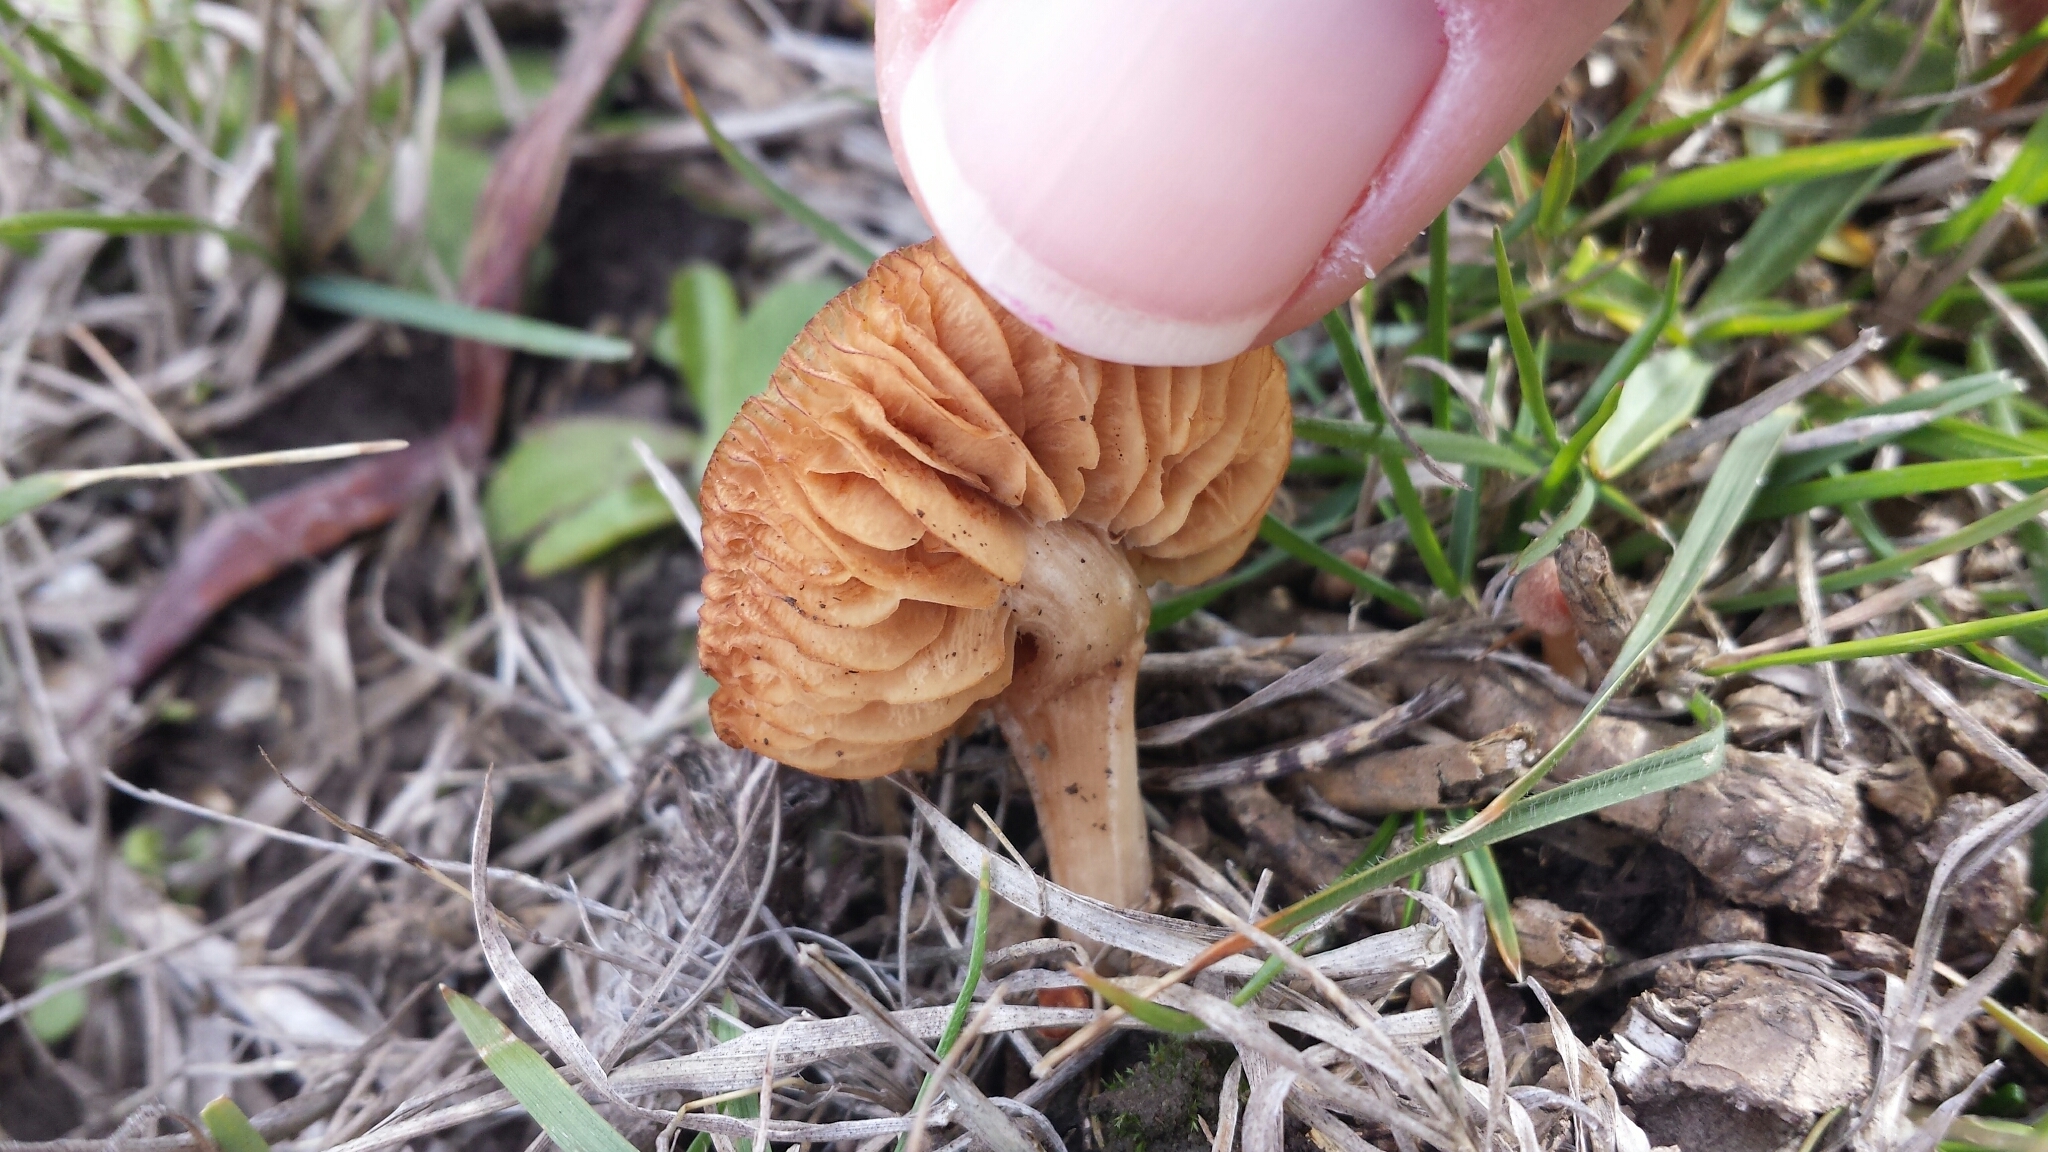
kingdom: Fungi
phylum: Basidiomycota
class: Agaricomycetes
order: Agaricales
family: Tubariaceae
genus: Tubaria
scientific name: Tubaria furfuracea
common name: Scurfy twiglet
